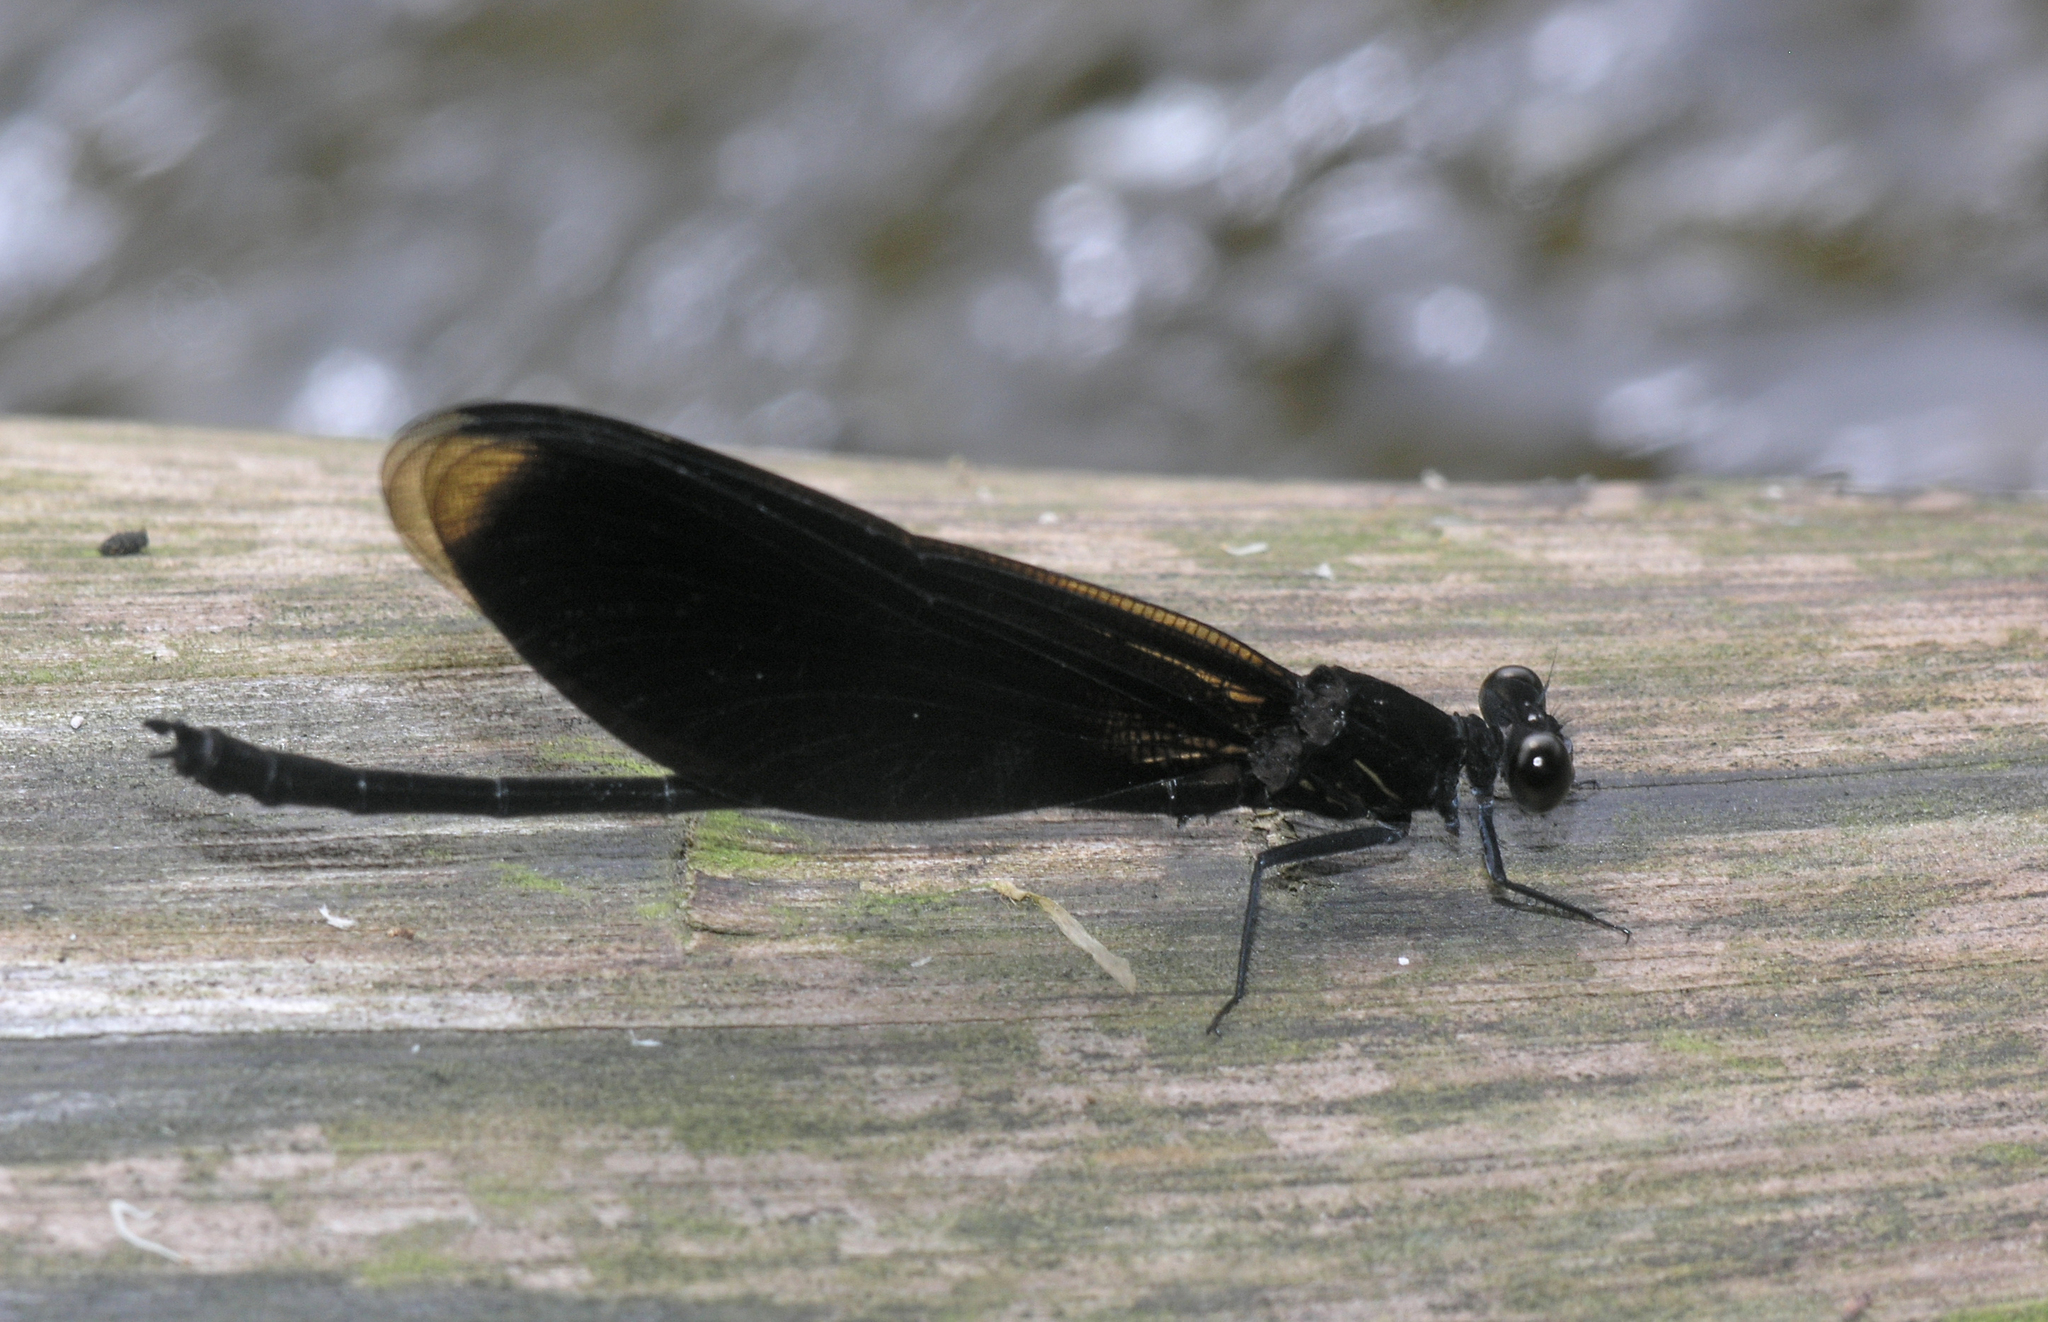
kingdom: Animalia
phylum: Arthropoda
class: Insecta
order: Odonata
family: Euphaeidae
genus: Euphaea
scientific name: Euphaea masoni
